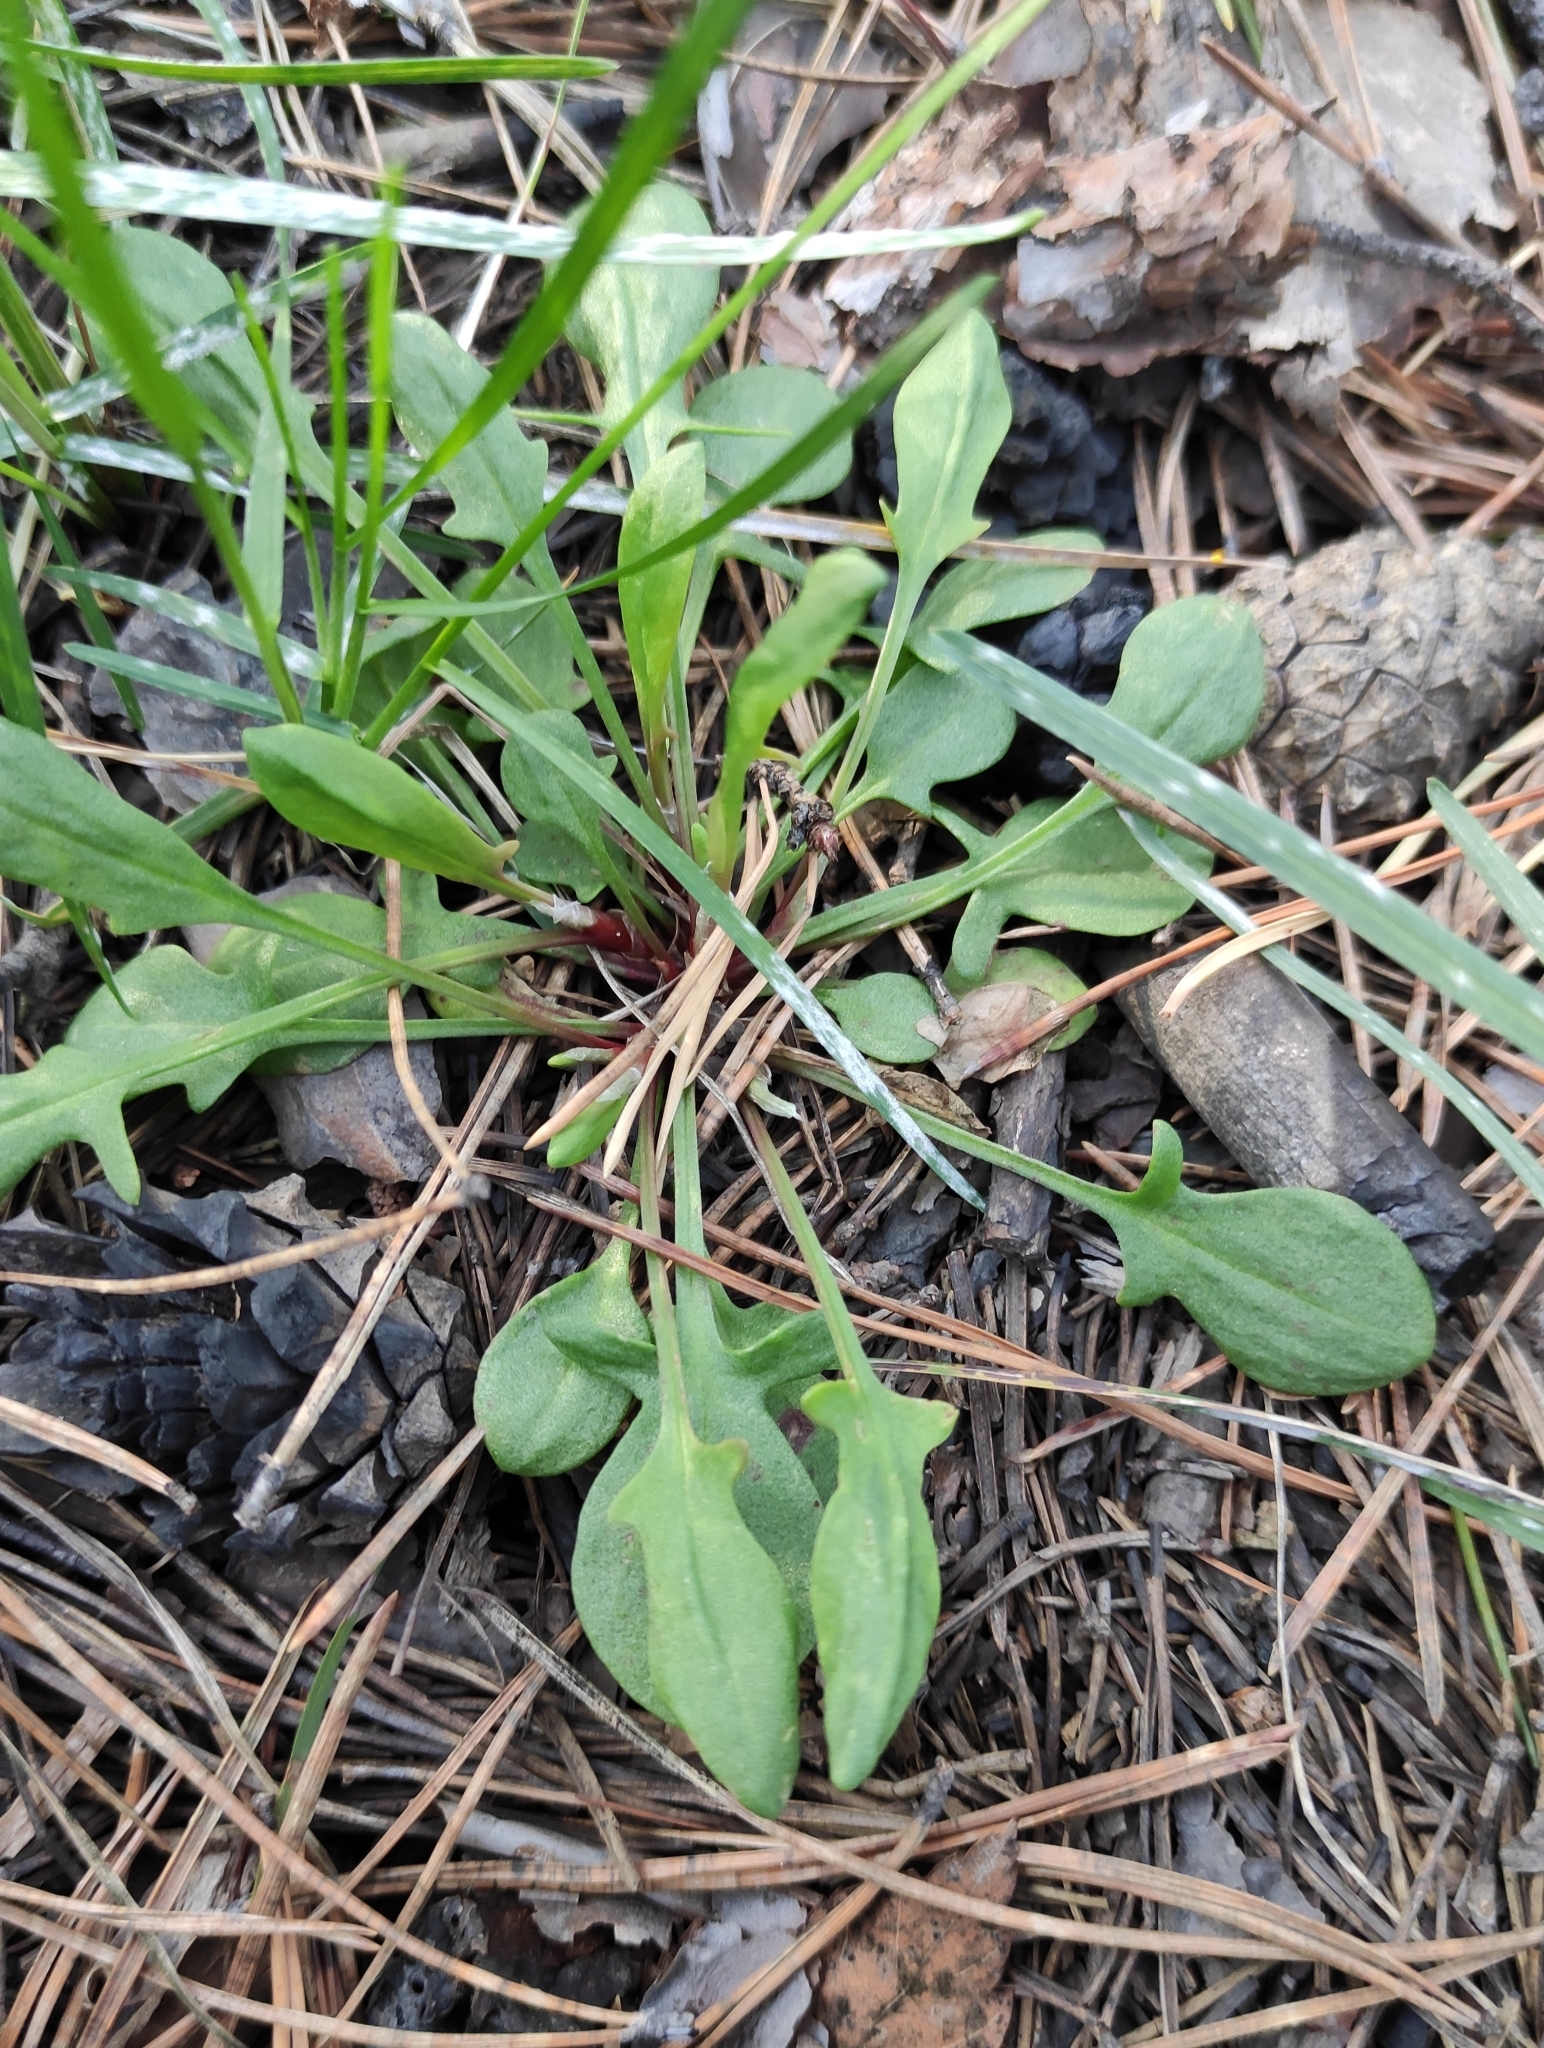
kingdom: Plantae
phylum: Tracheophyta
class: Magnoliopsida
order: Caryophyllales
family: Polygonaceae
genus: Rumex
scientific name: Rumex acetosella
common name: Common sheep sorrel
